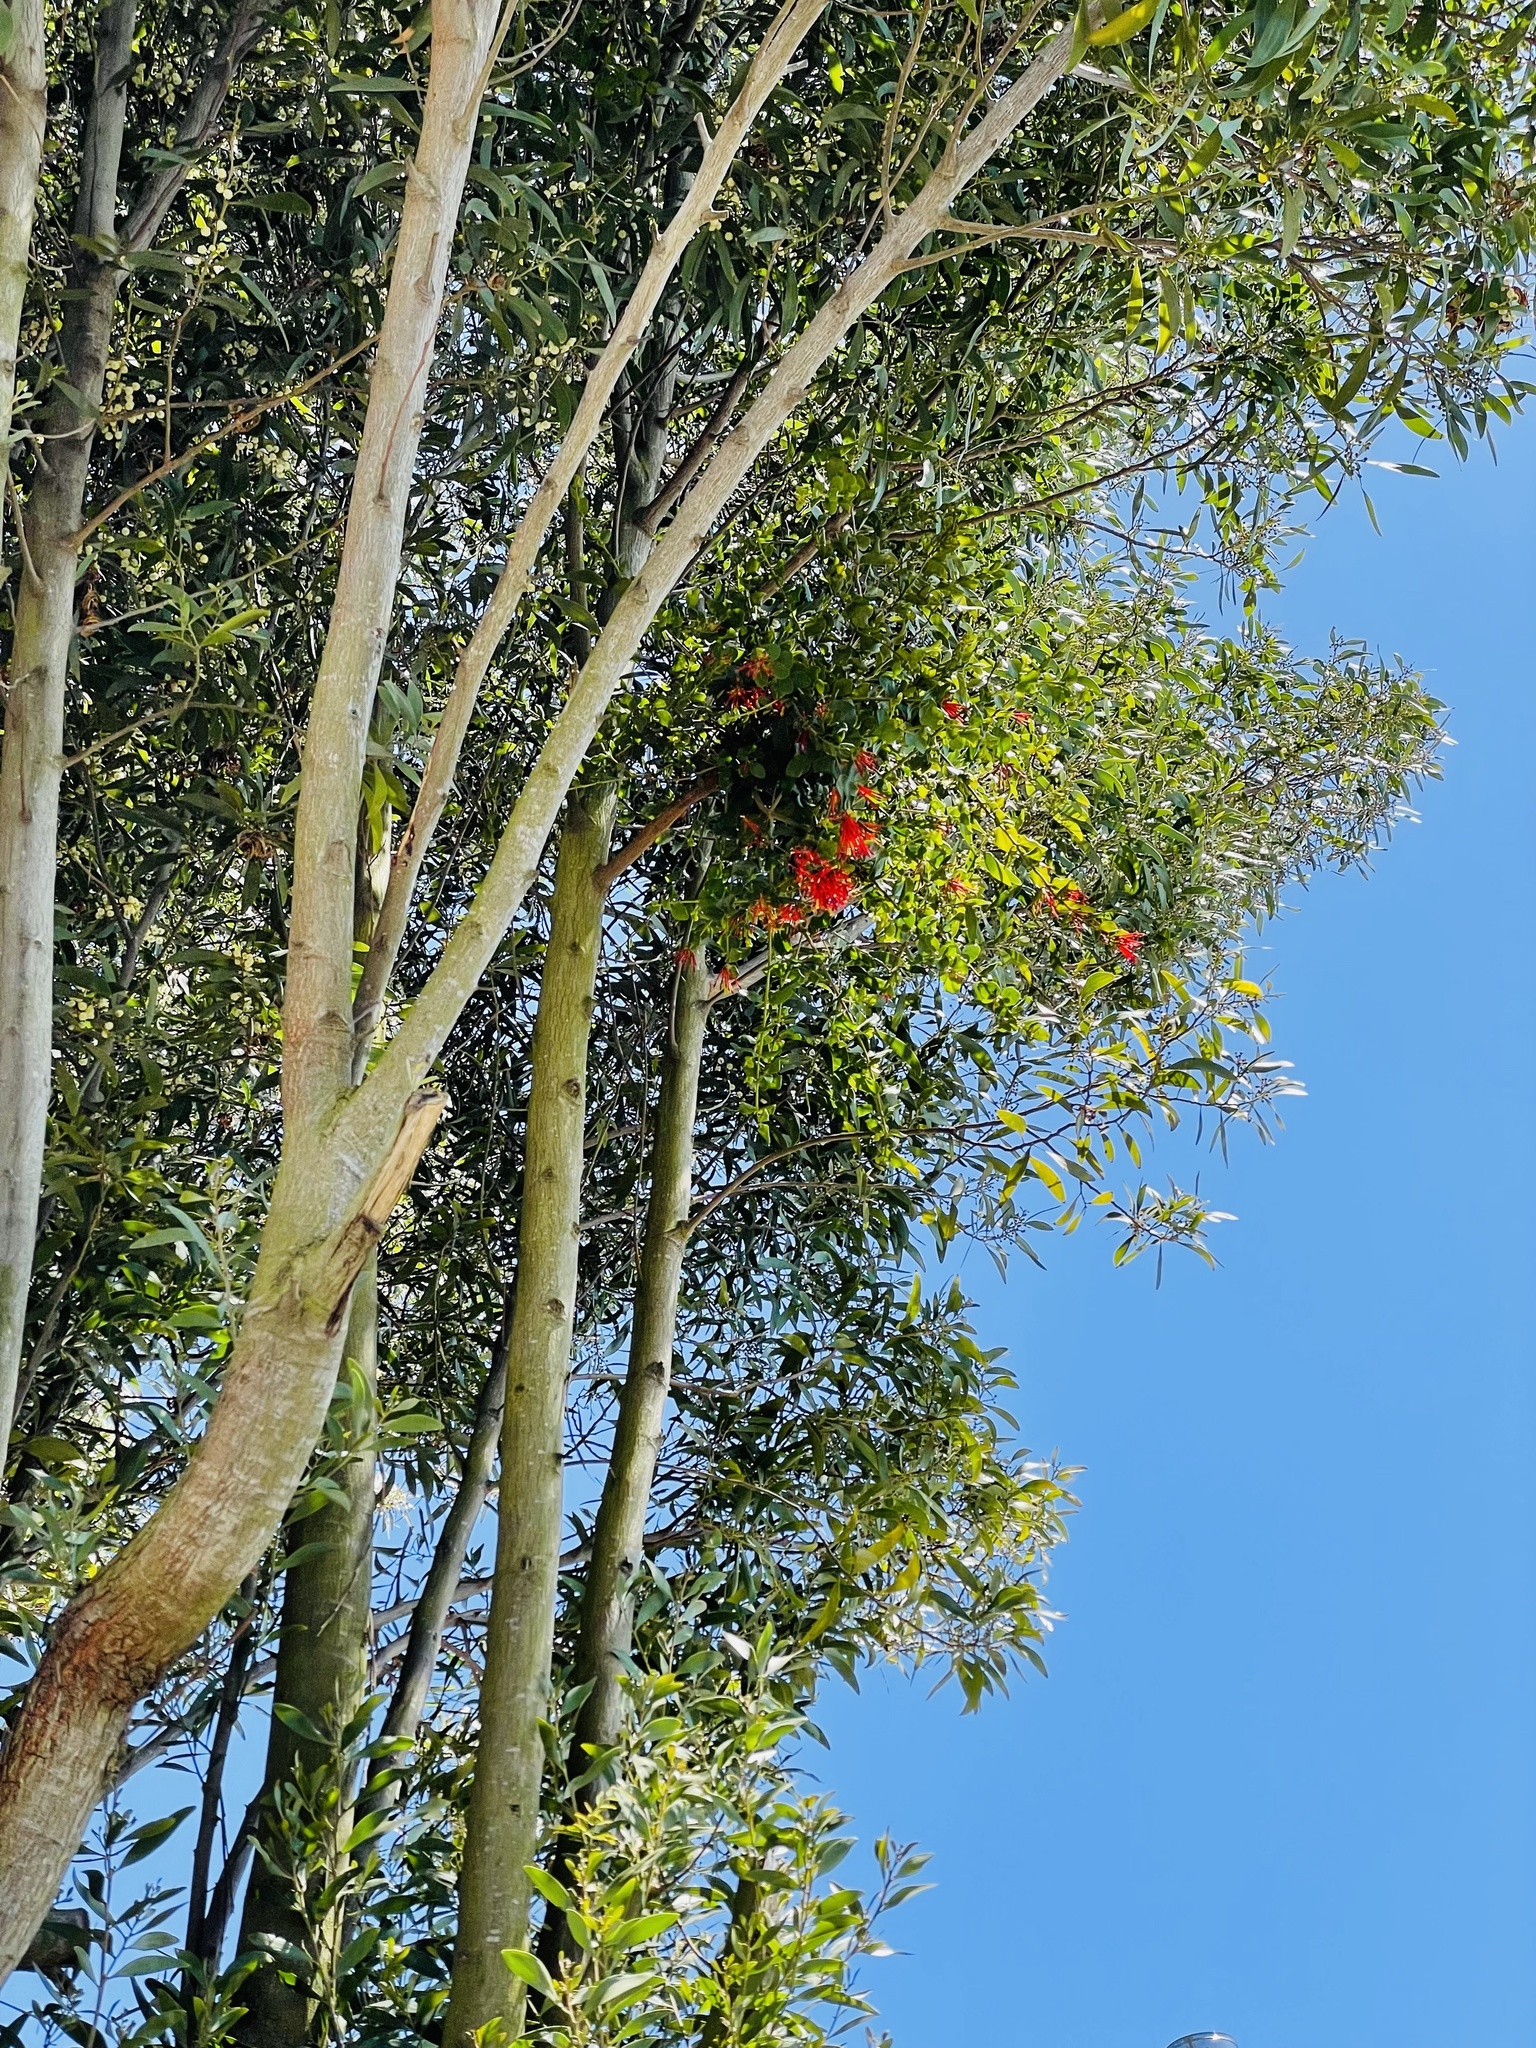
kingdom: Plantae
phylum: Tracheophyta
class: Magnoliopsida
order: Santalales
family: Loranthaceae
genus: Tristerix
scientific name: Tristerix corymbosus
